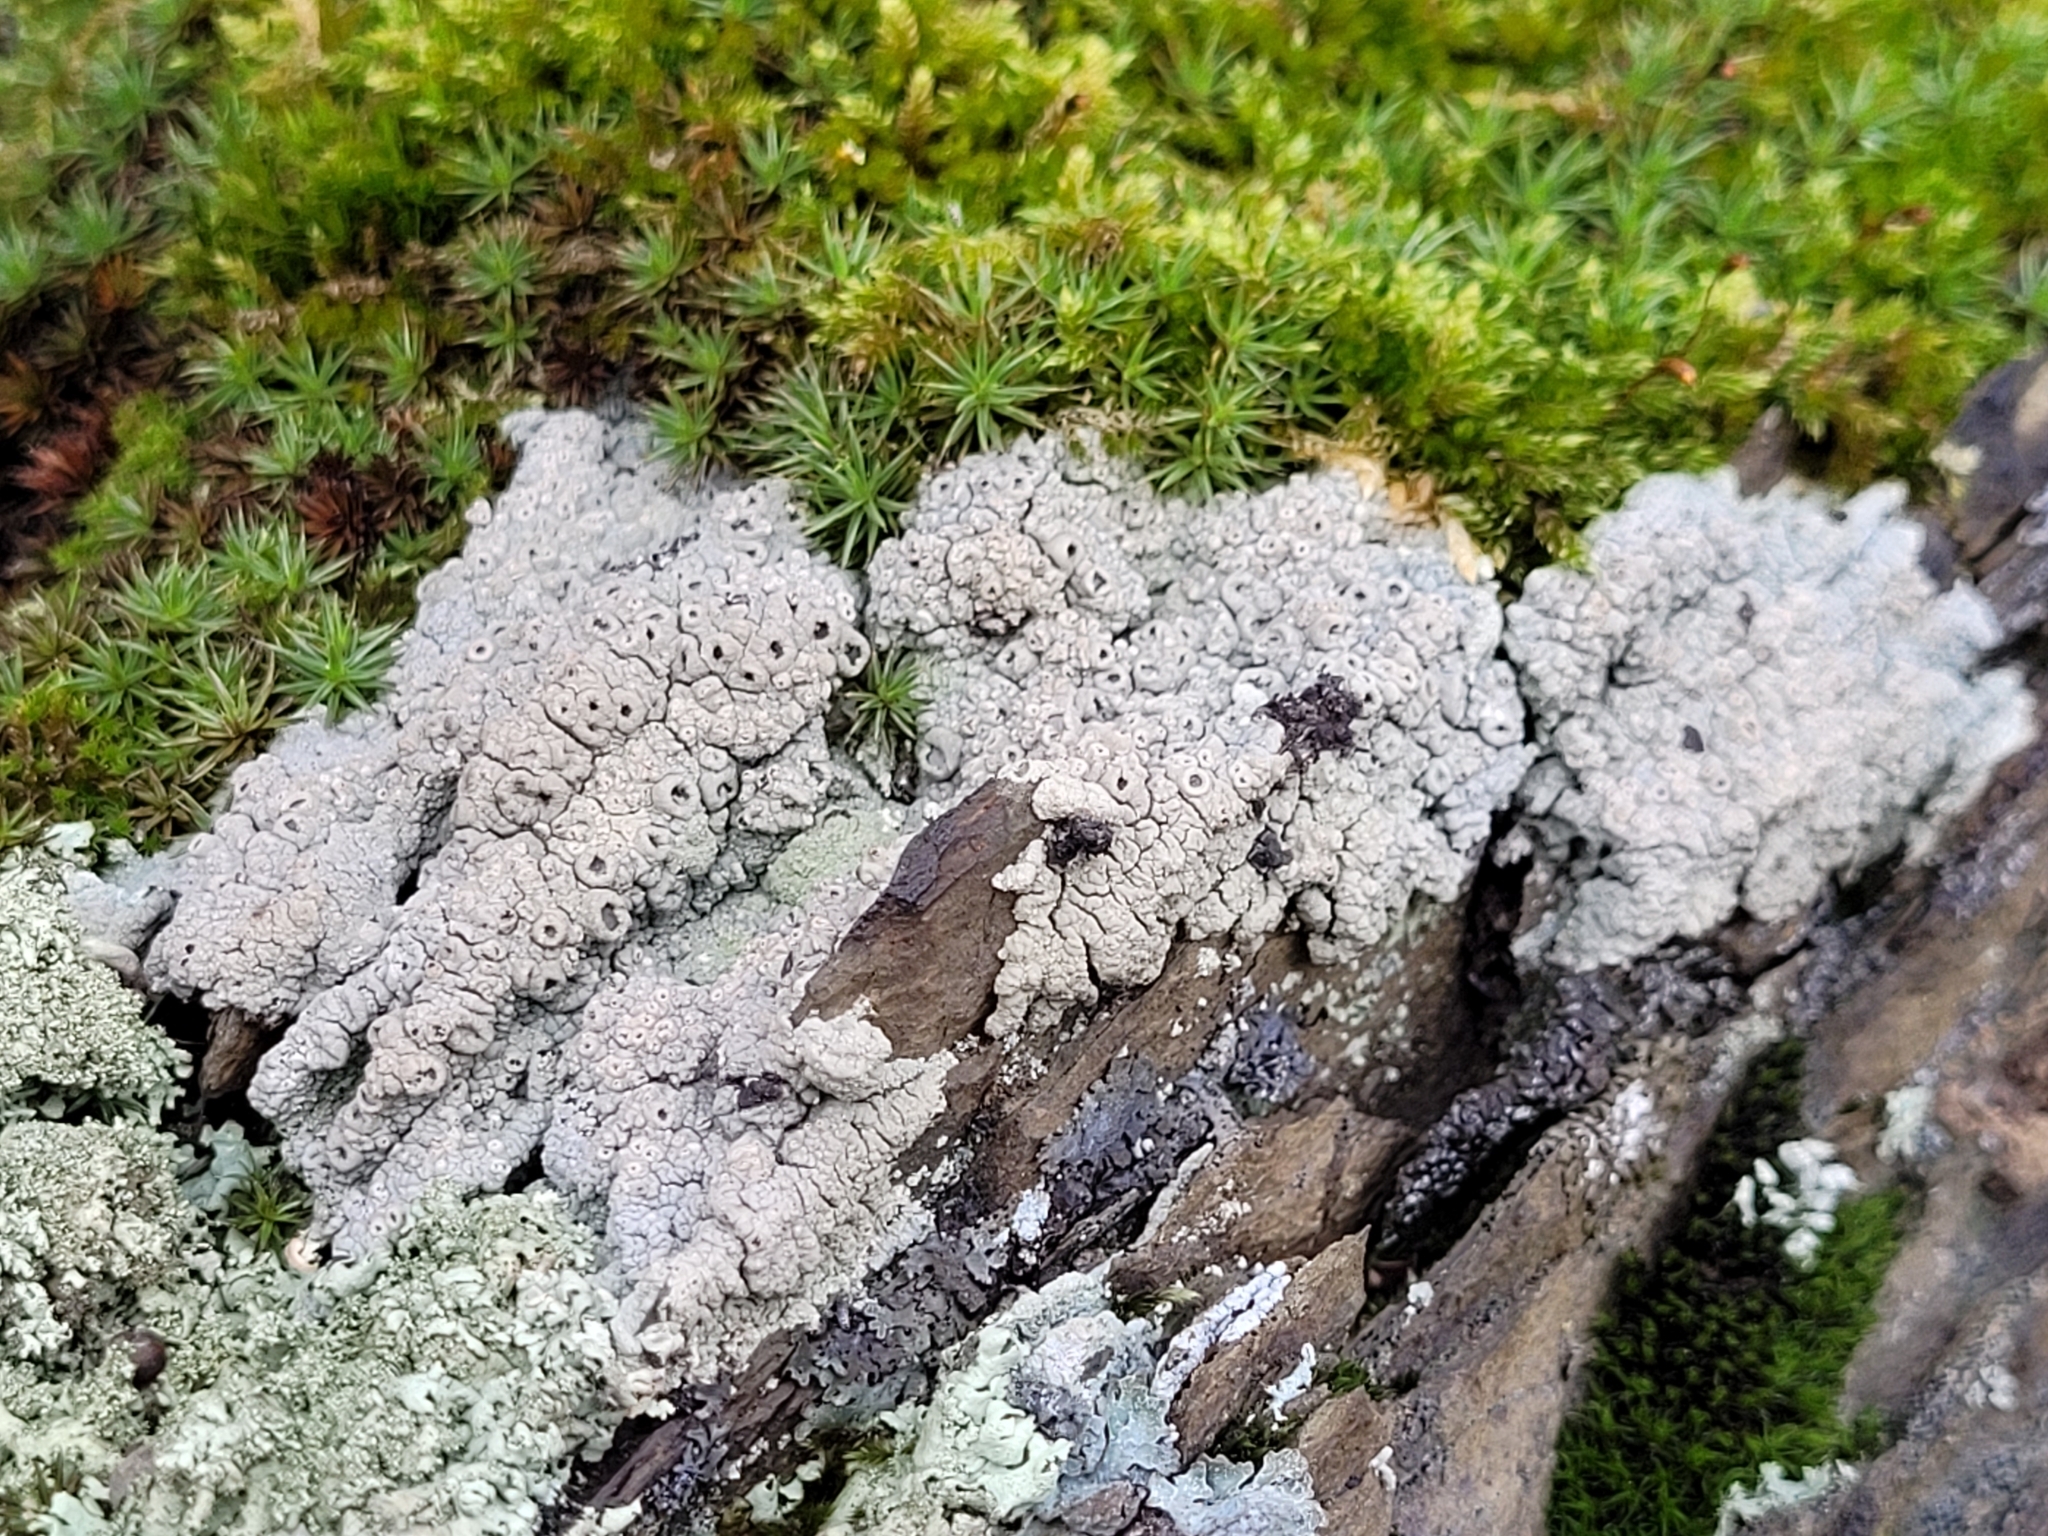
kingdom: Fungi
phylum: Ascomycota
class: Lecanoromycetes
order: Ostropales
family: Graphidaceae
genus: Diploschistes
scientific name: Diploschistes scruposus
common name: Crater lichen
